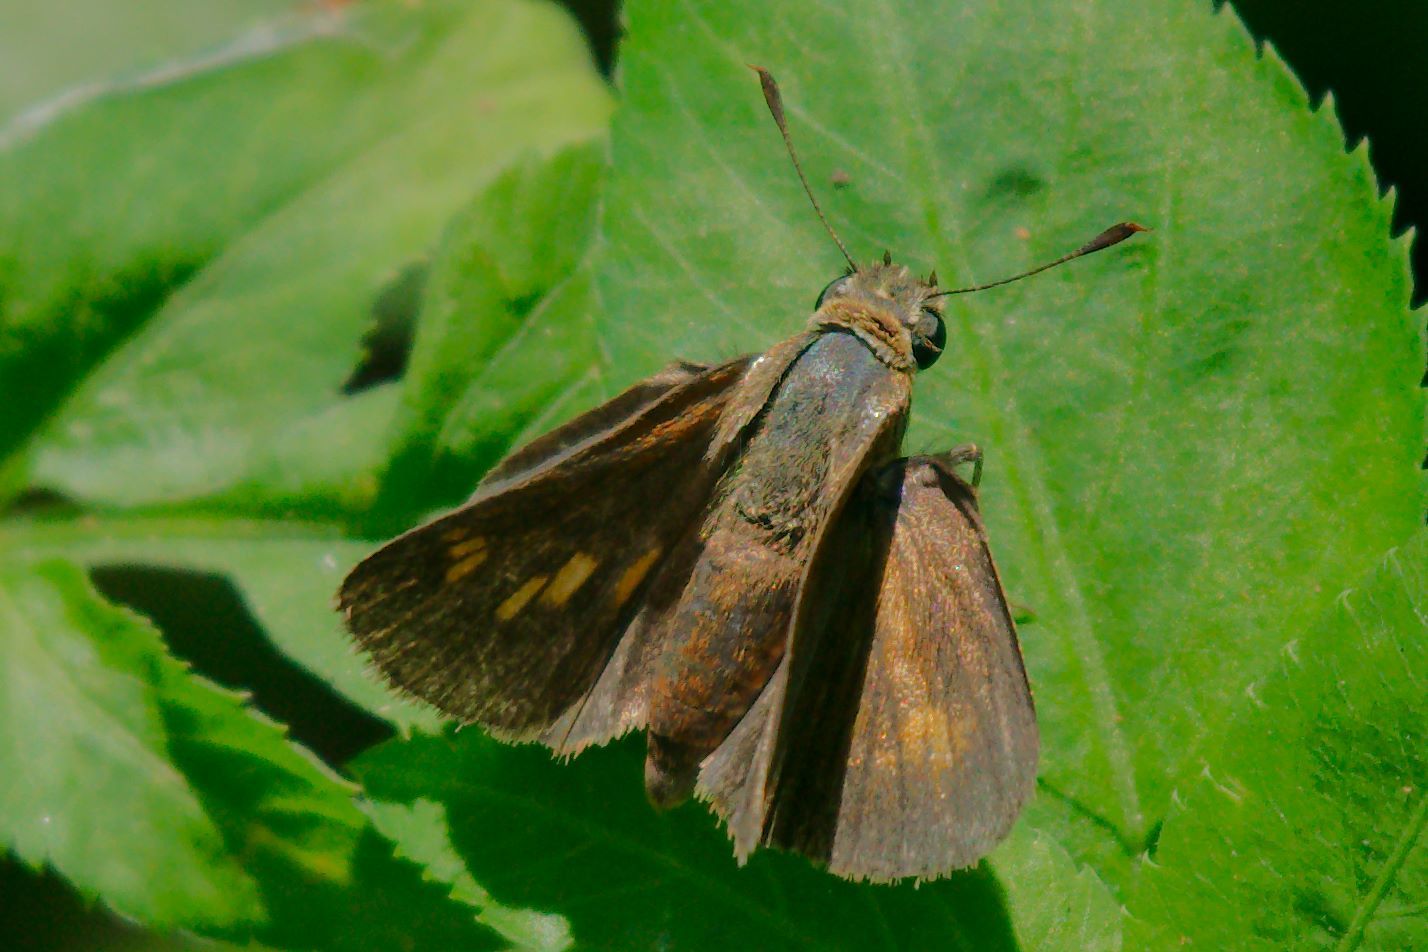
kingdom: Animalia
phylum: Arthropoda
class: Insecta
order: Lepidoptera
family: Hesperiidae
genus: Polites
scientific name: Polites otho
